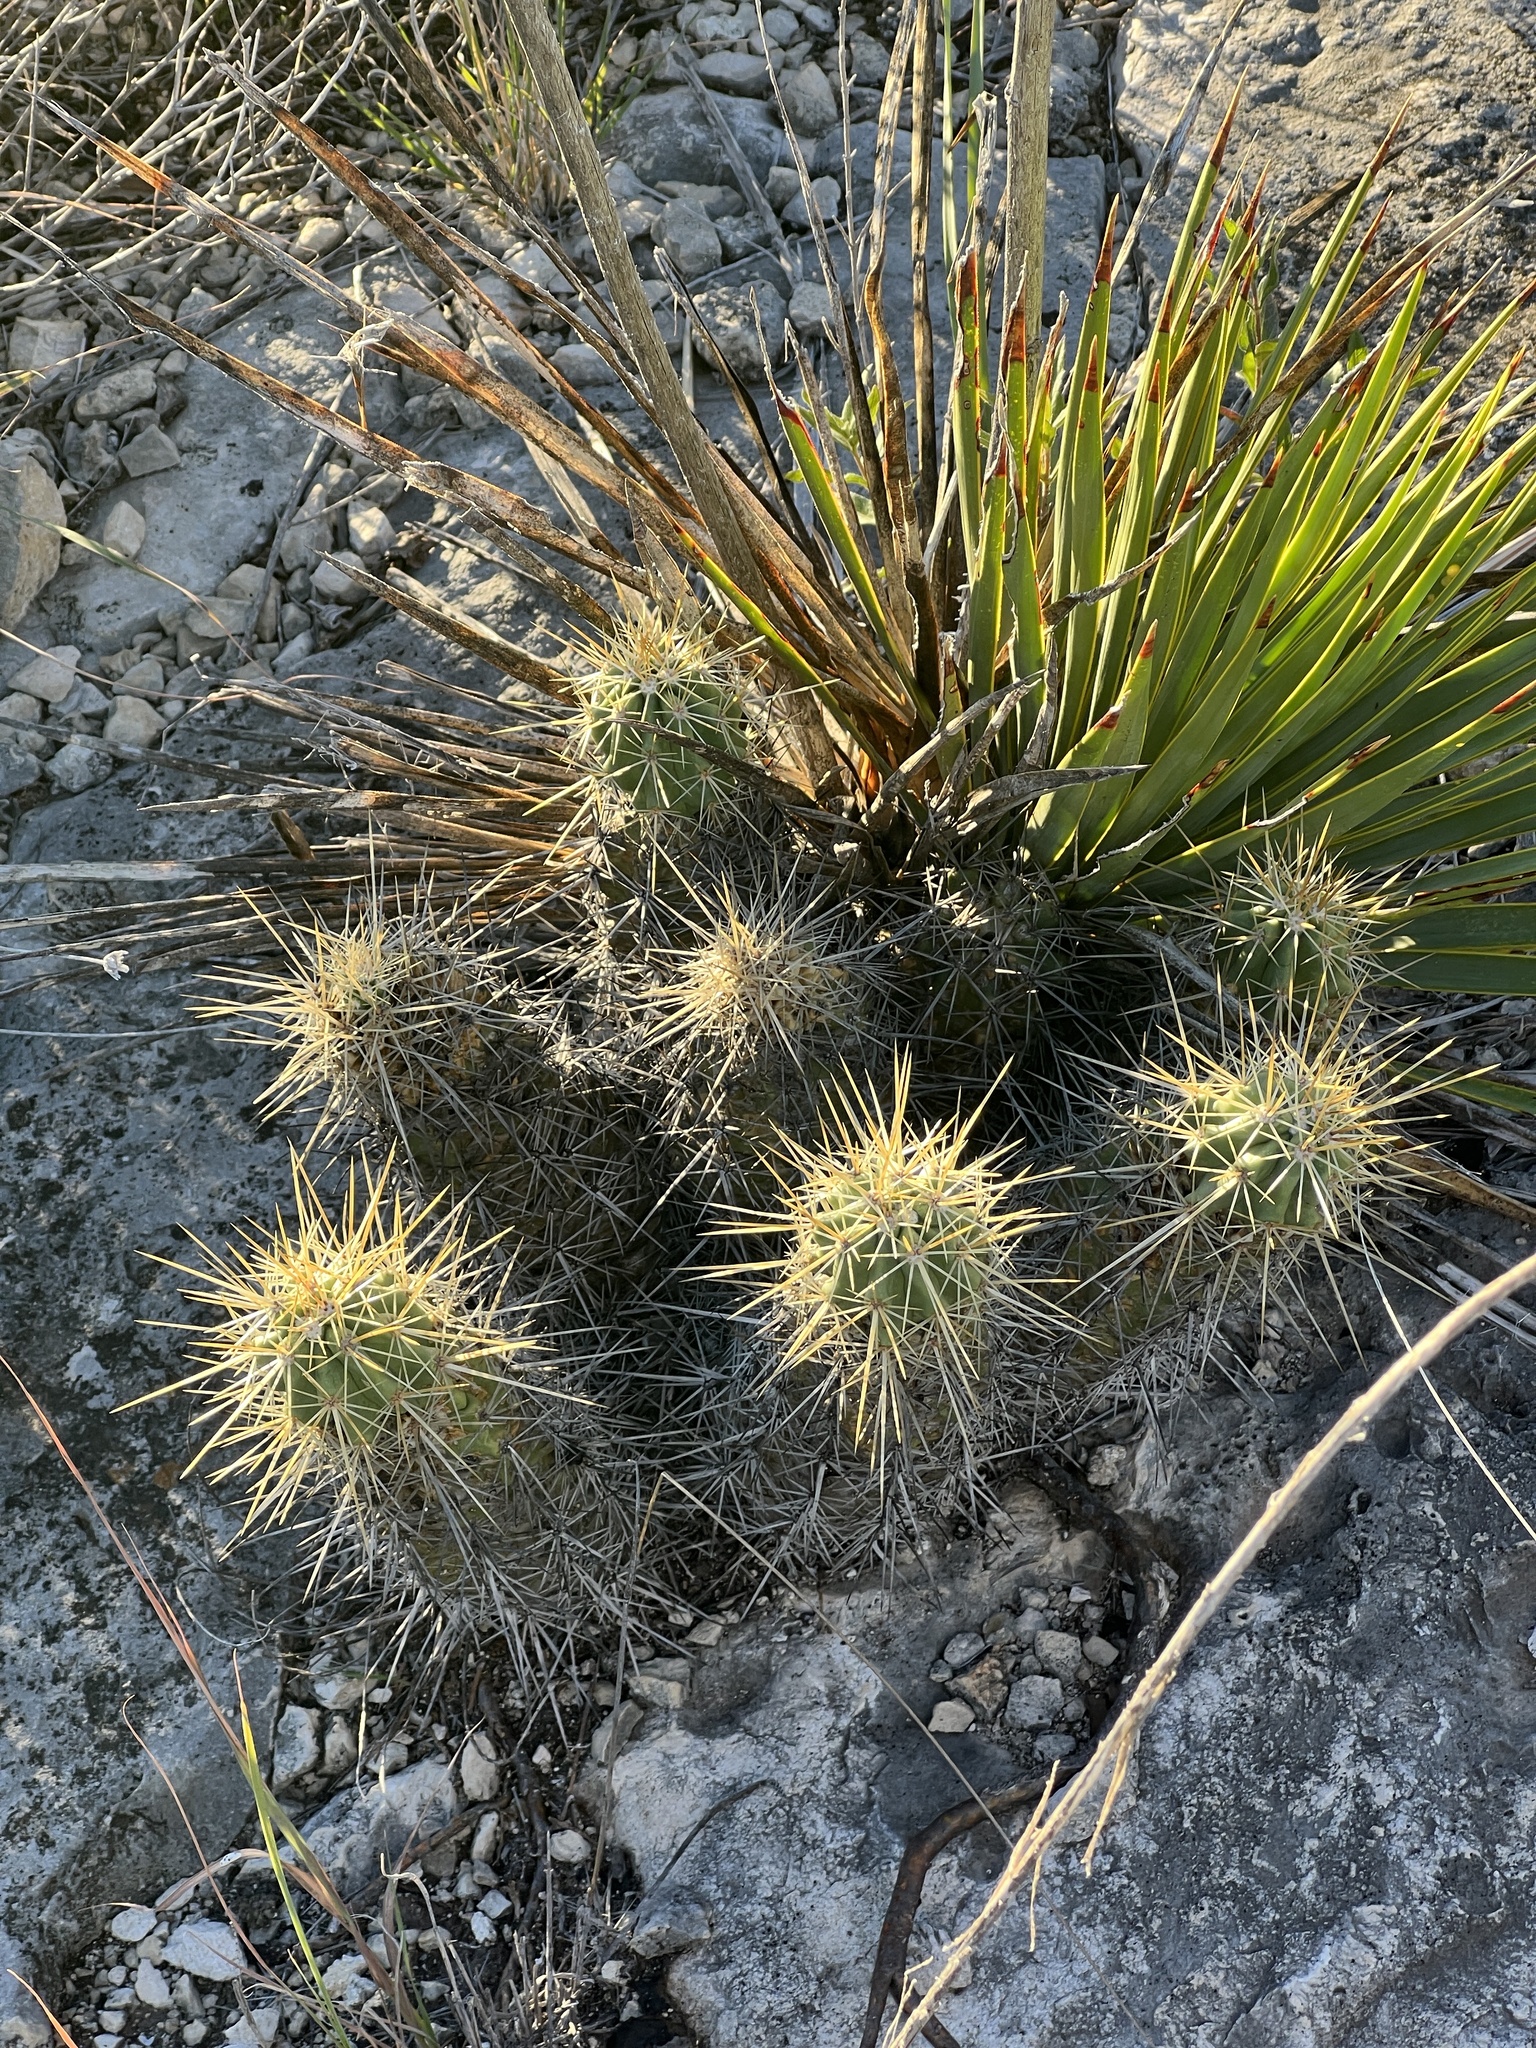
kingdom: Plantae
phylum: Tracheophyta
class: Magnoliopsida
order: Caryophyllales
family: Cactaceae
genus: Echinocereus
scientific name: Echinocereus enneacanthus
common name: Pitaya
